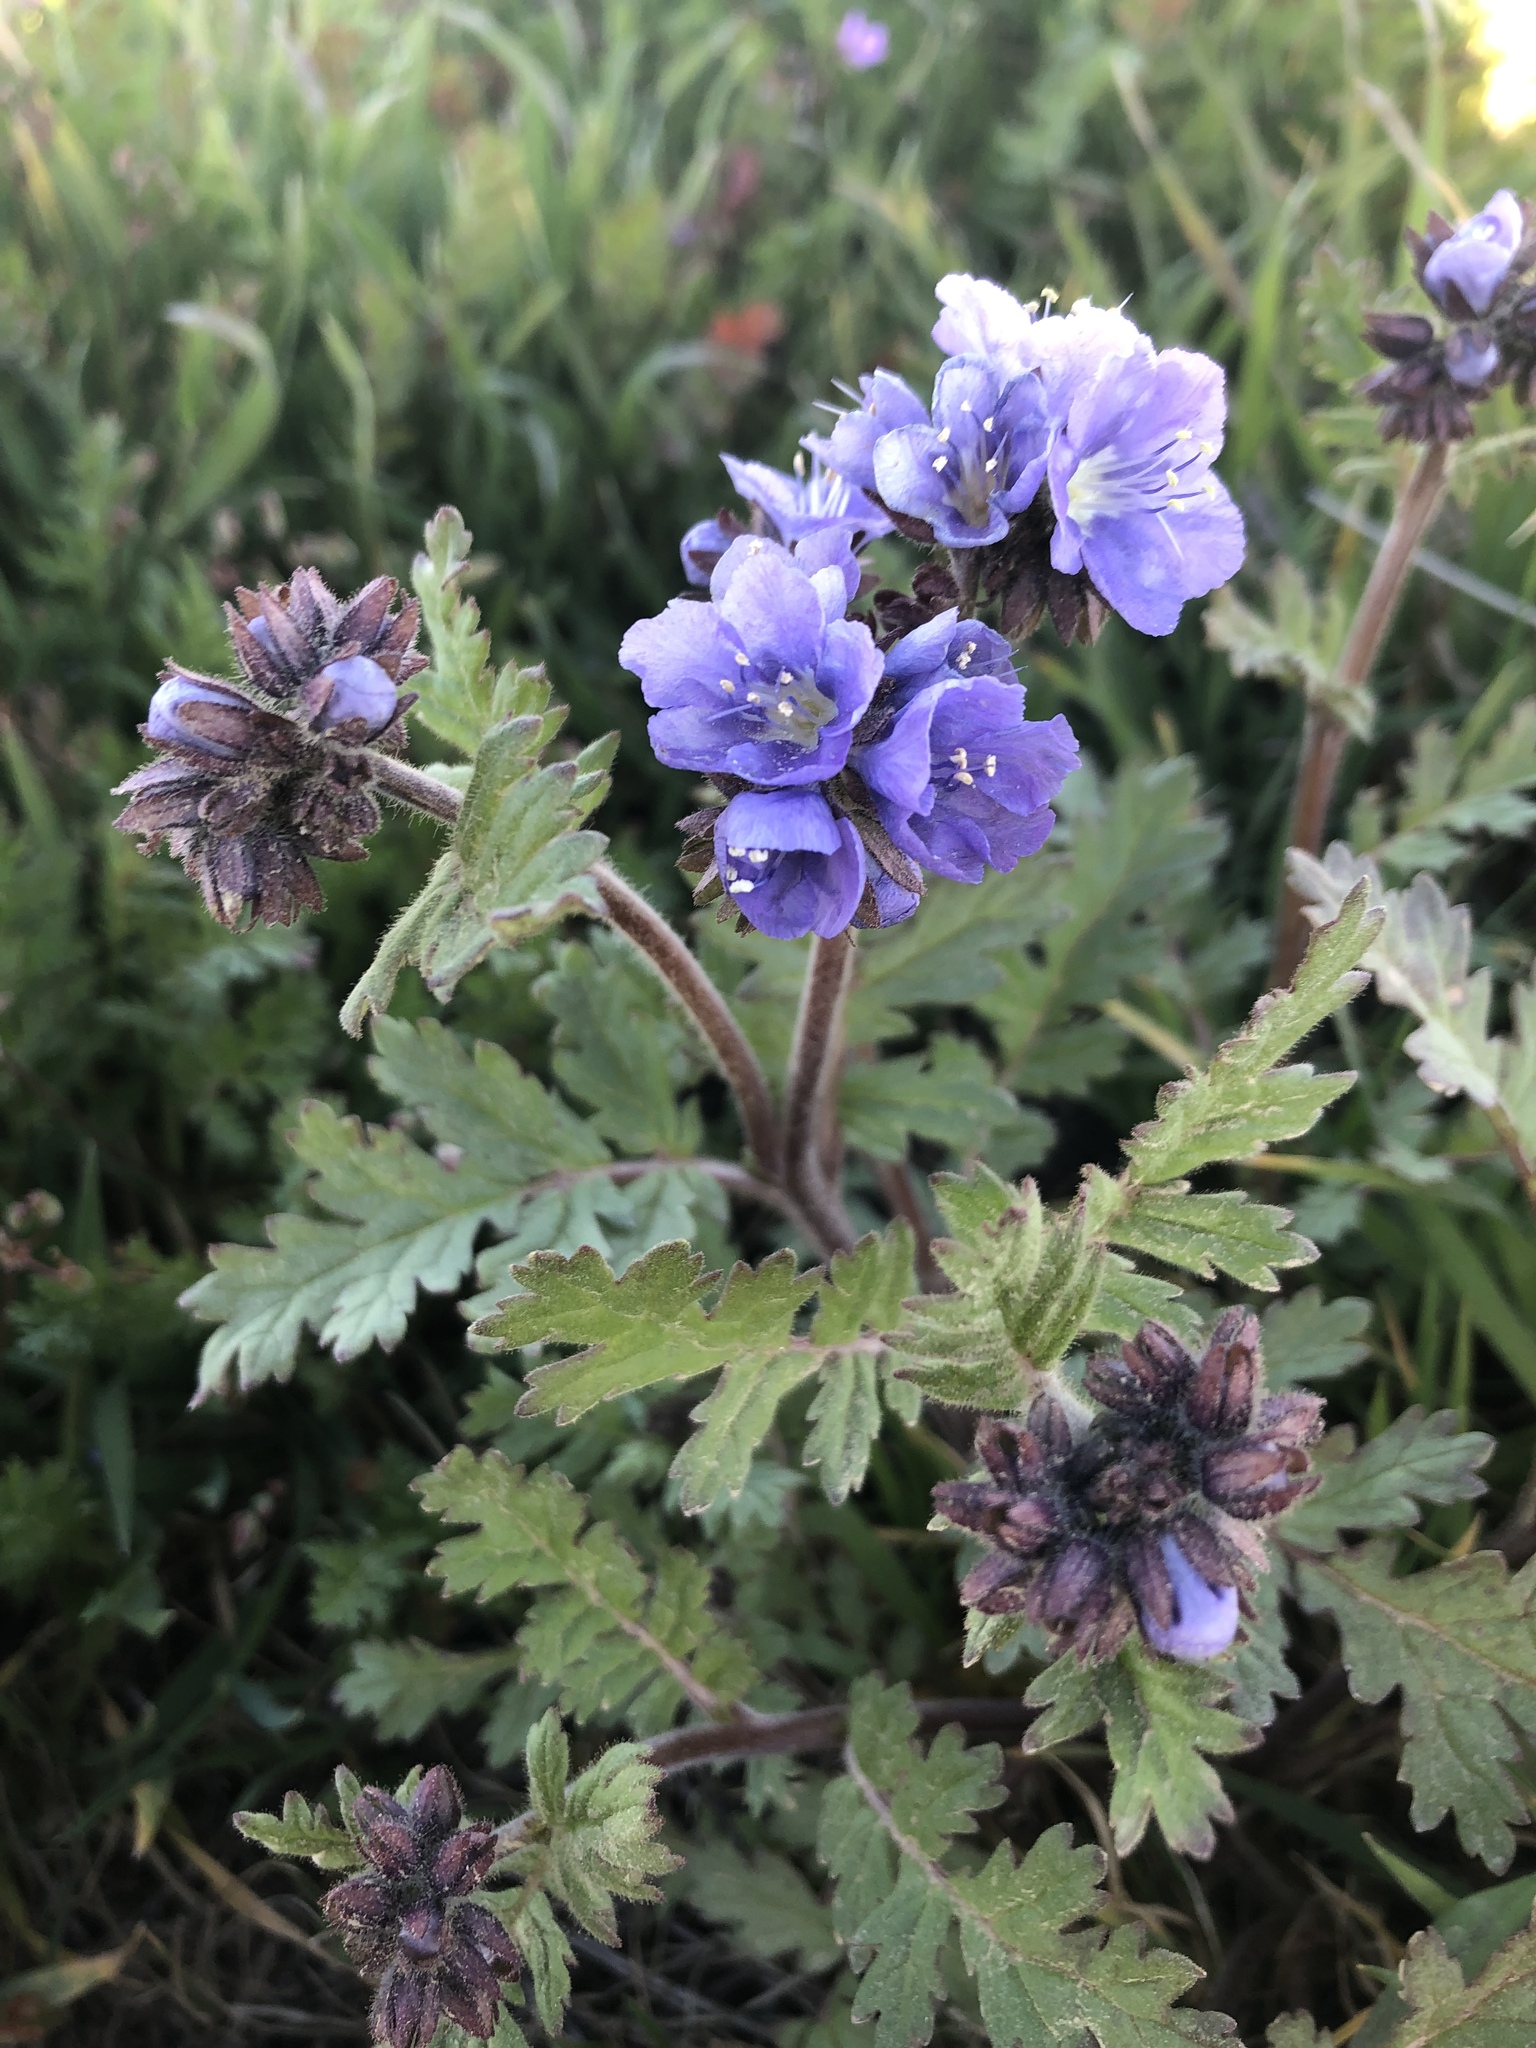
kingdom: Plantae
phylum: Tracheophyta
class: Magnoliopsida
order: Boraginales
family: Hydrophyllaceae
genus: Phacelia
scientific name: Phacelia ciliata
